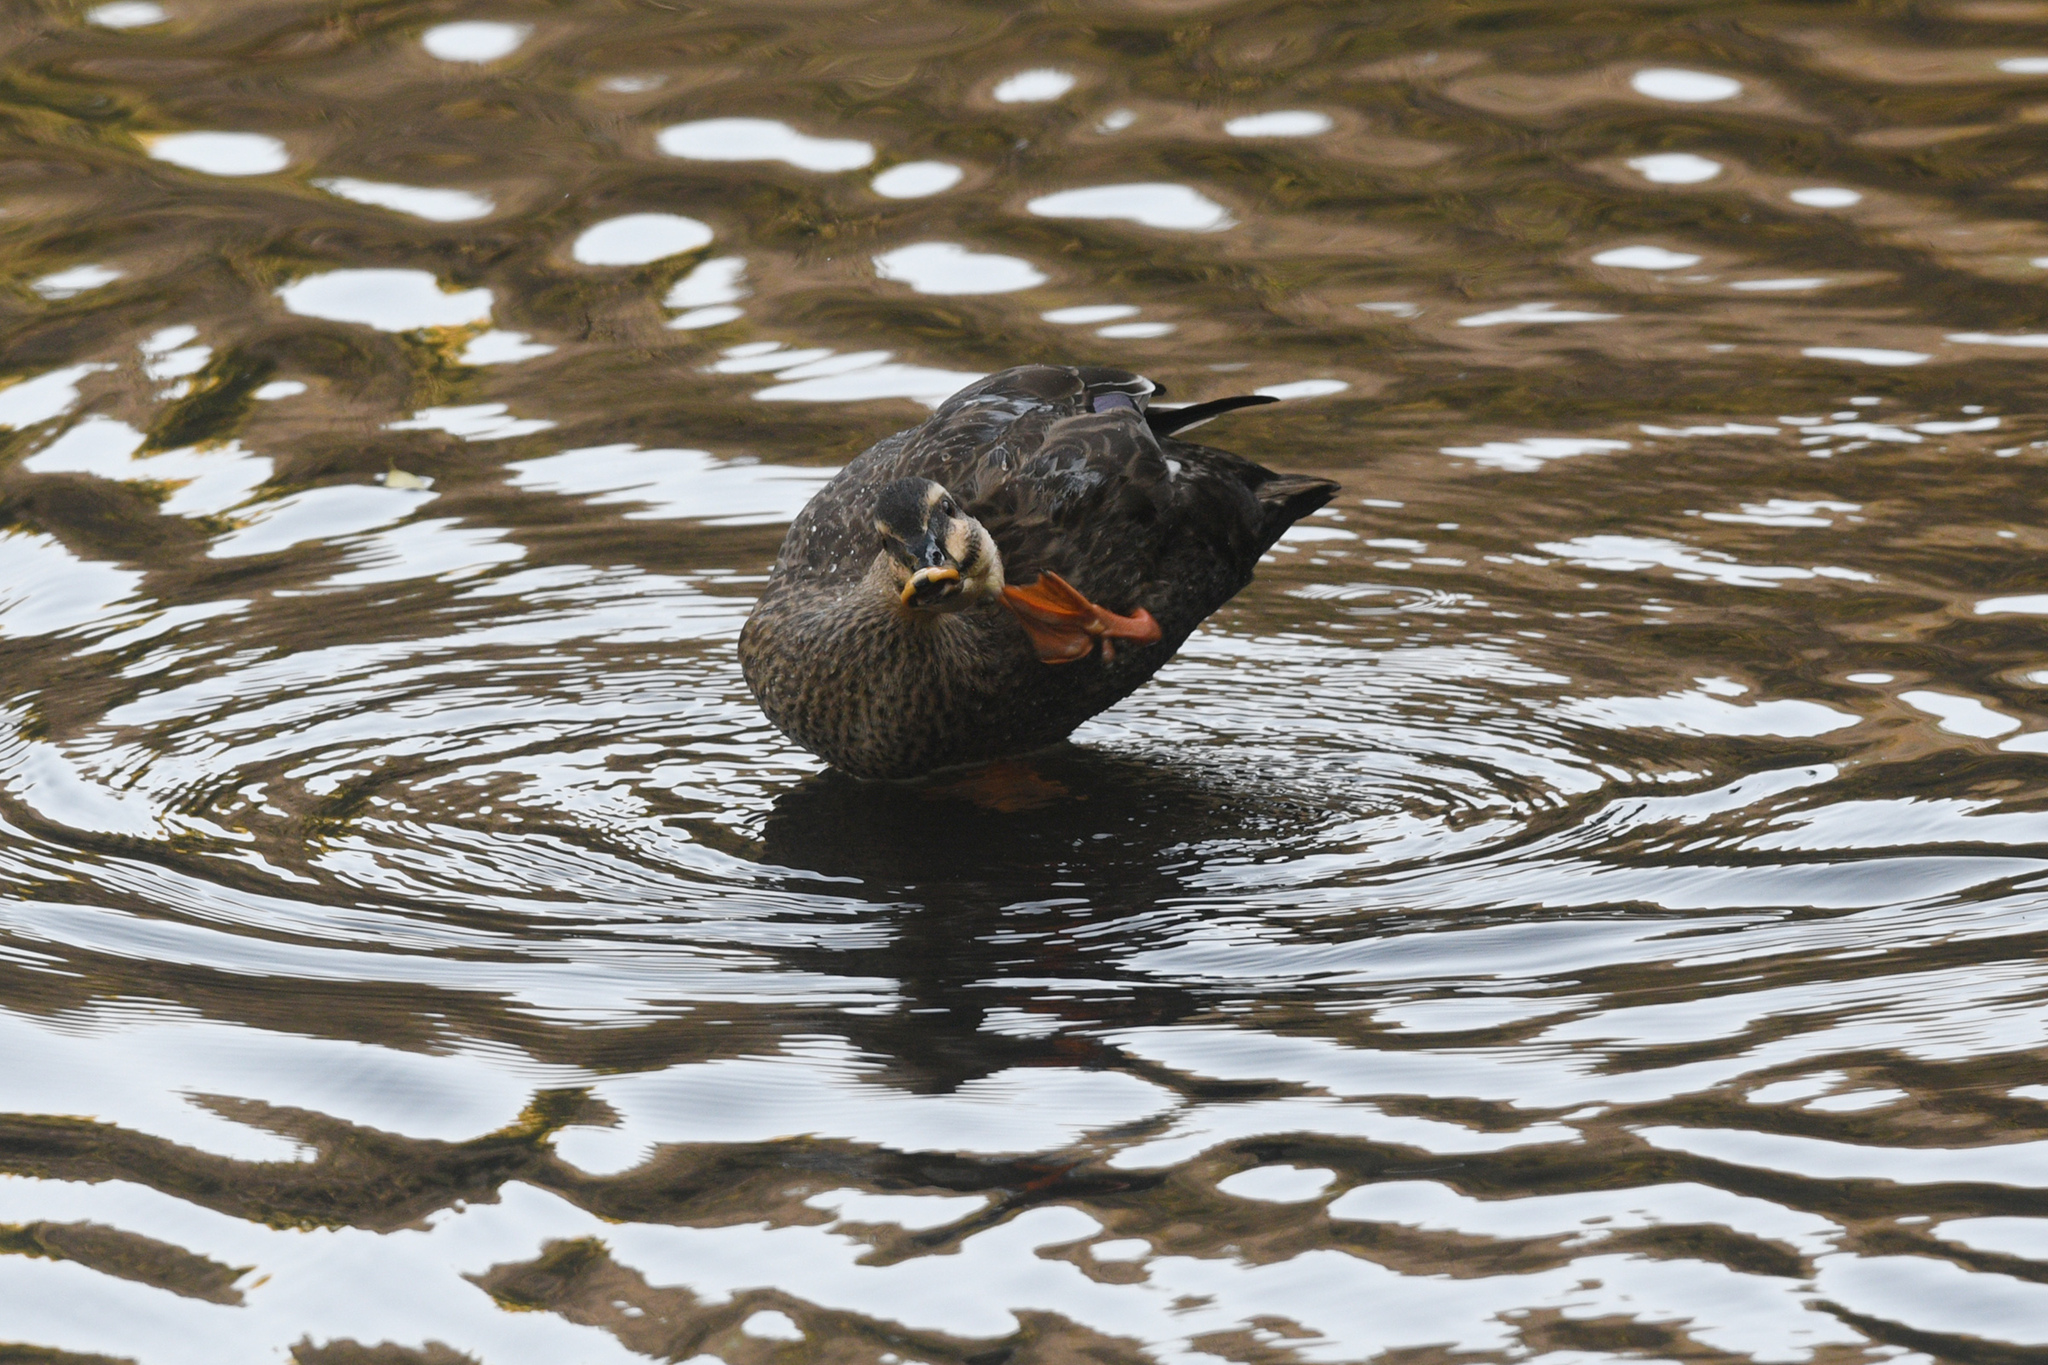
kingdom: Animalia
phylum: Chordata
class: Aves
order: Anseriformes
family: Anatidae
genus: Anas
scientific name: Anas zonorhyncha
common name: Eastern spot-billed duck
